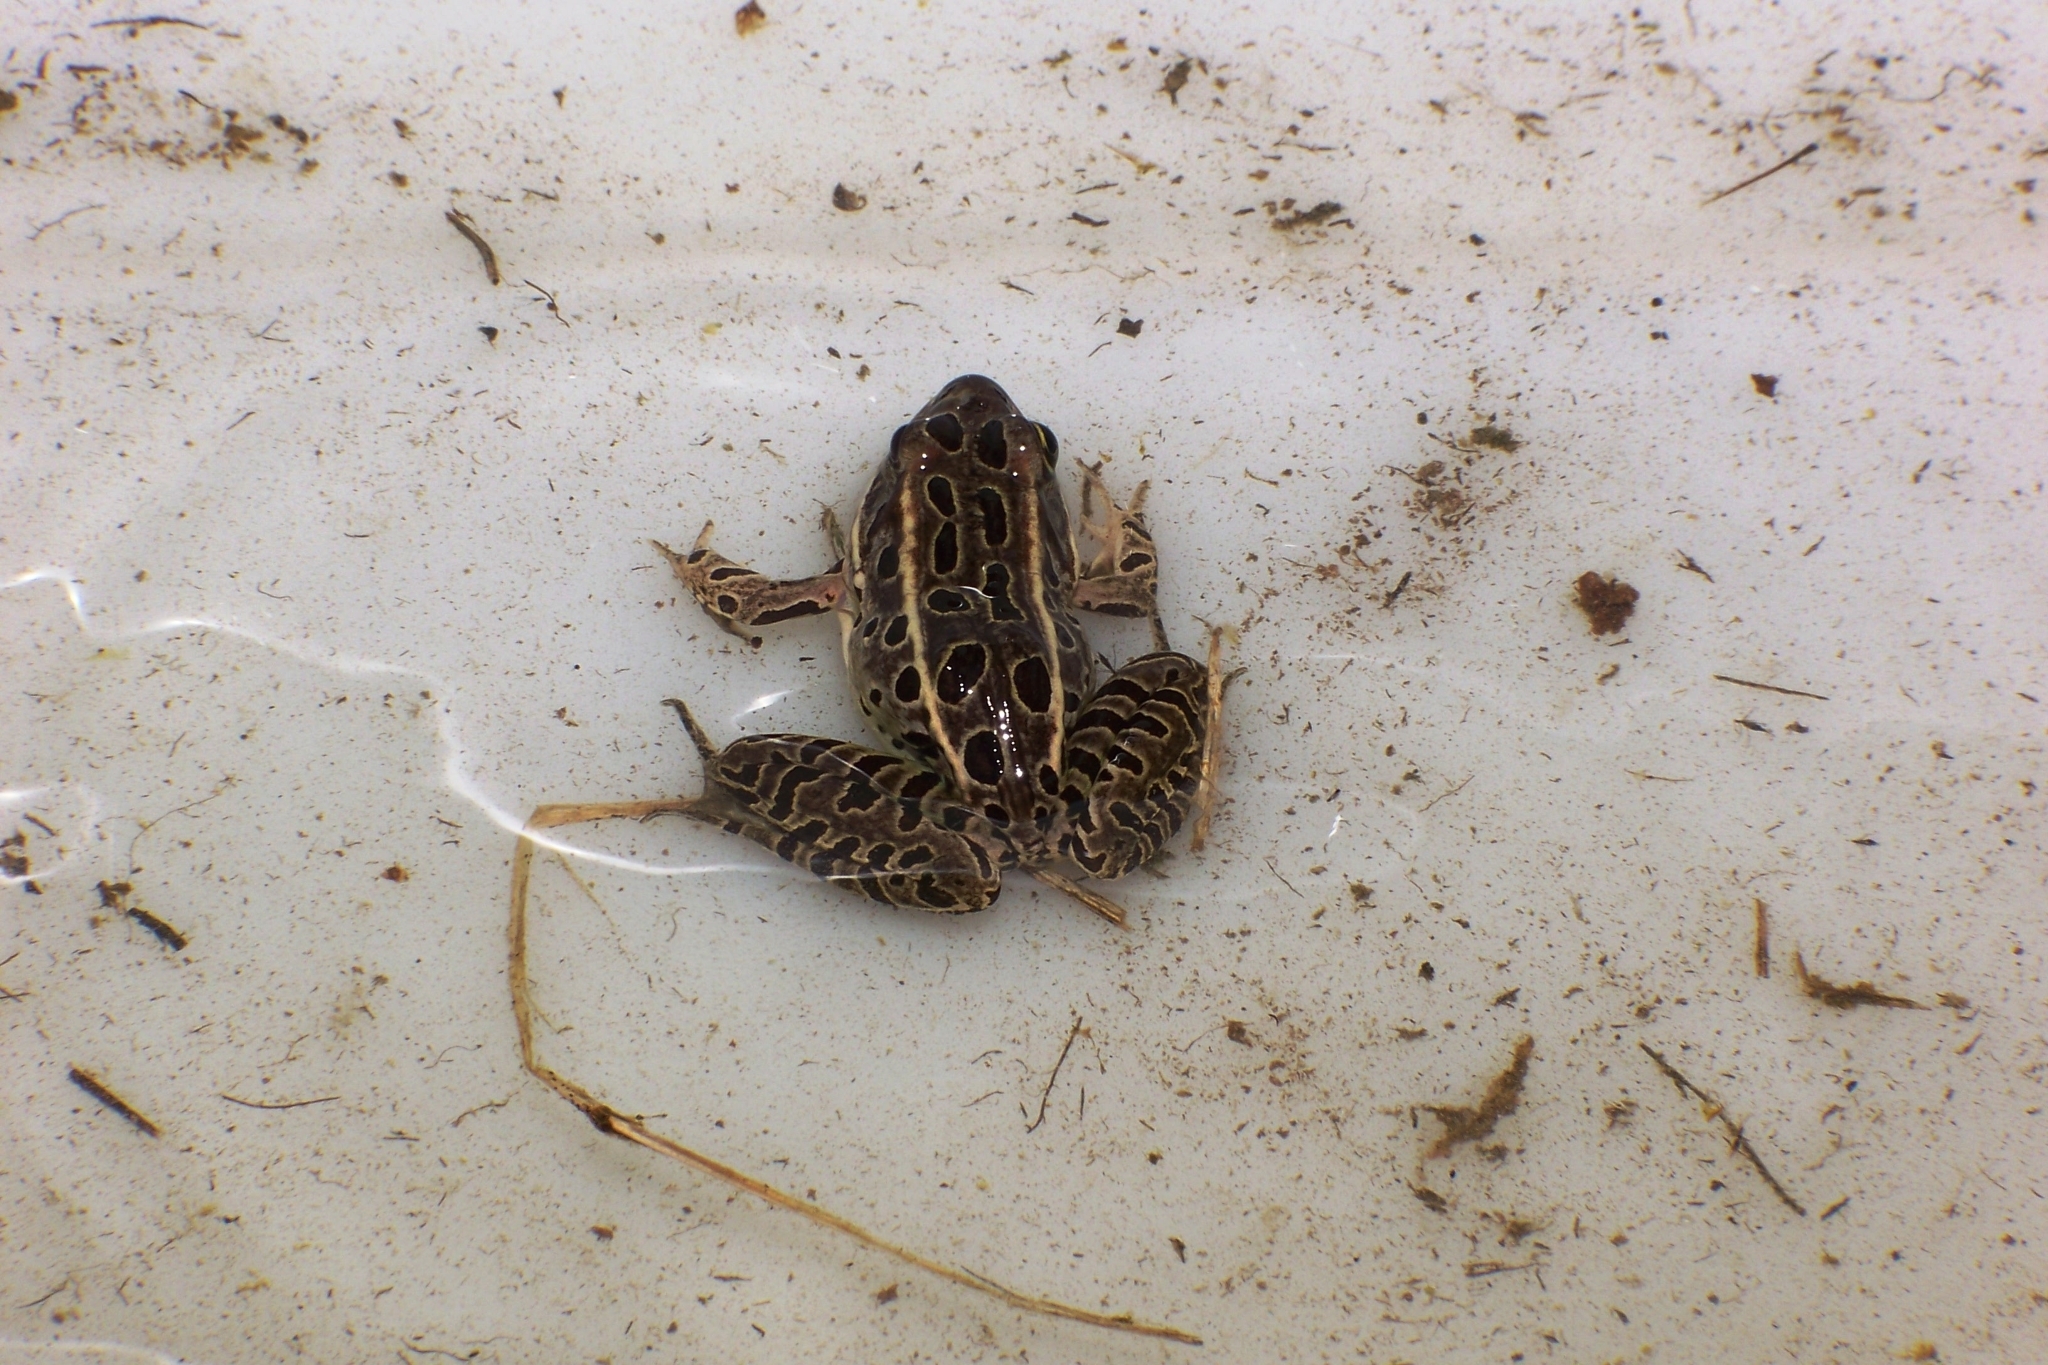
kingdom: Animalia
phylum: Chordata
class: Amphibia
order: Anura
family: Ranidae
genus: Lithobates
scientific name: Lithobates pipiens
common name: Northern leopard frog
